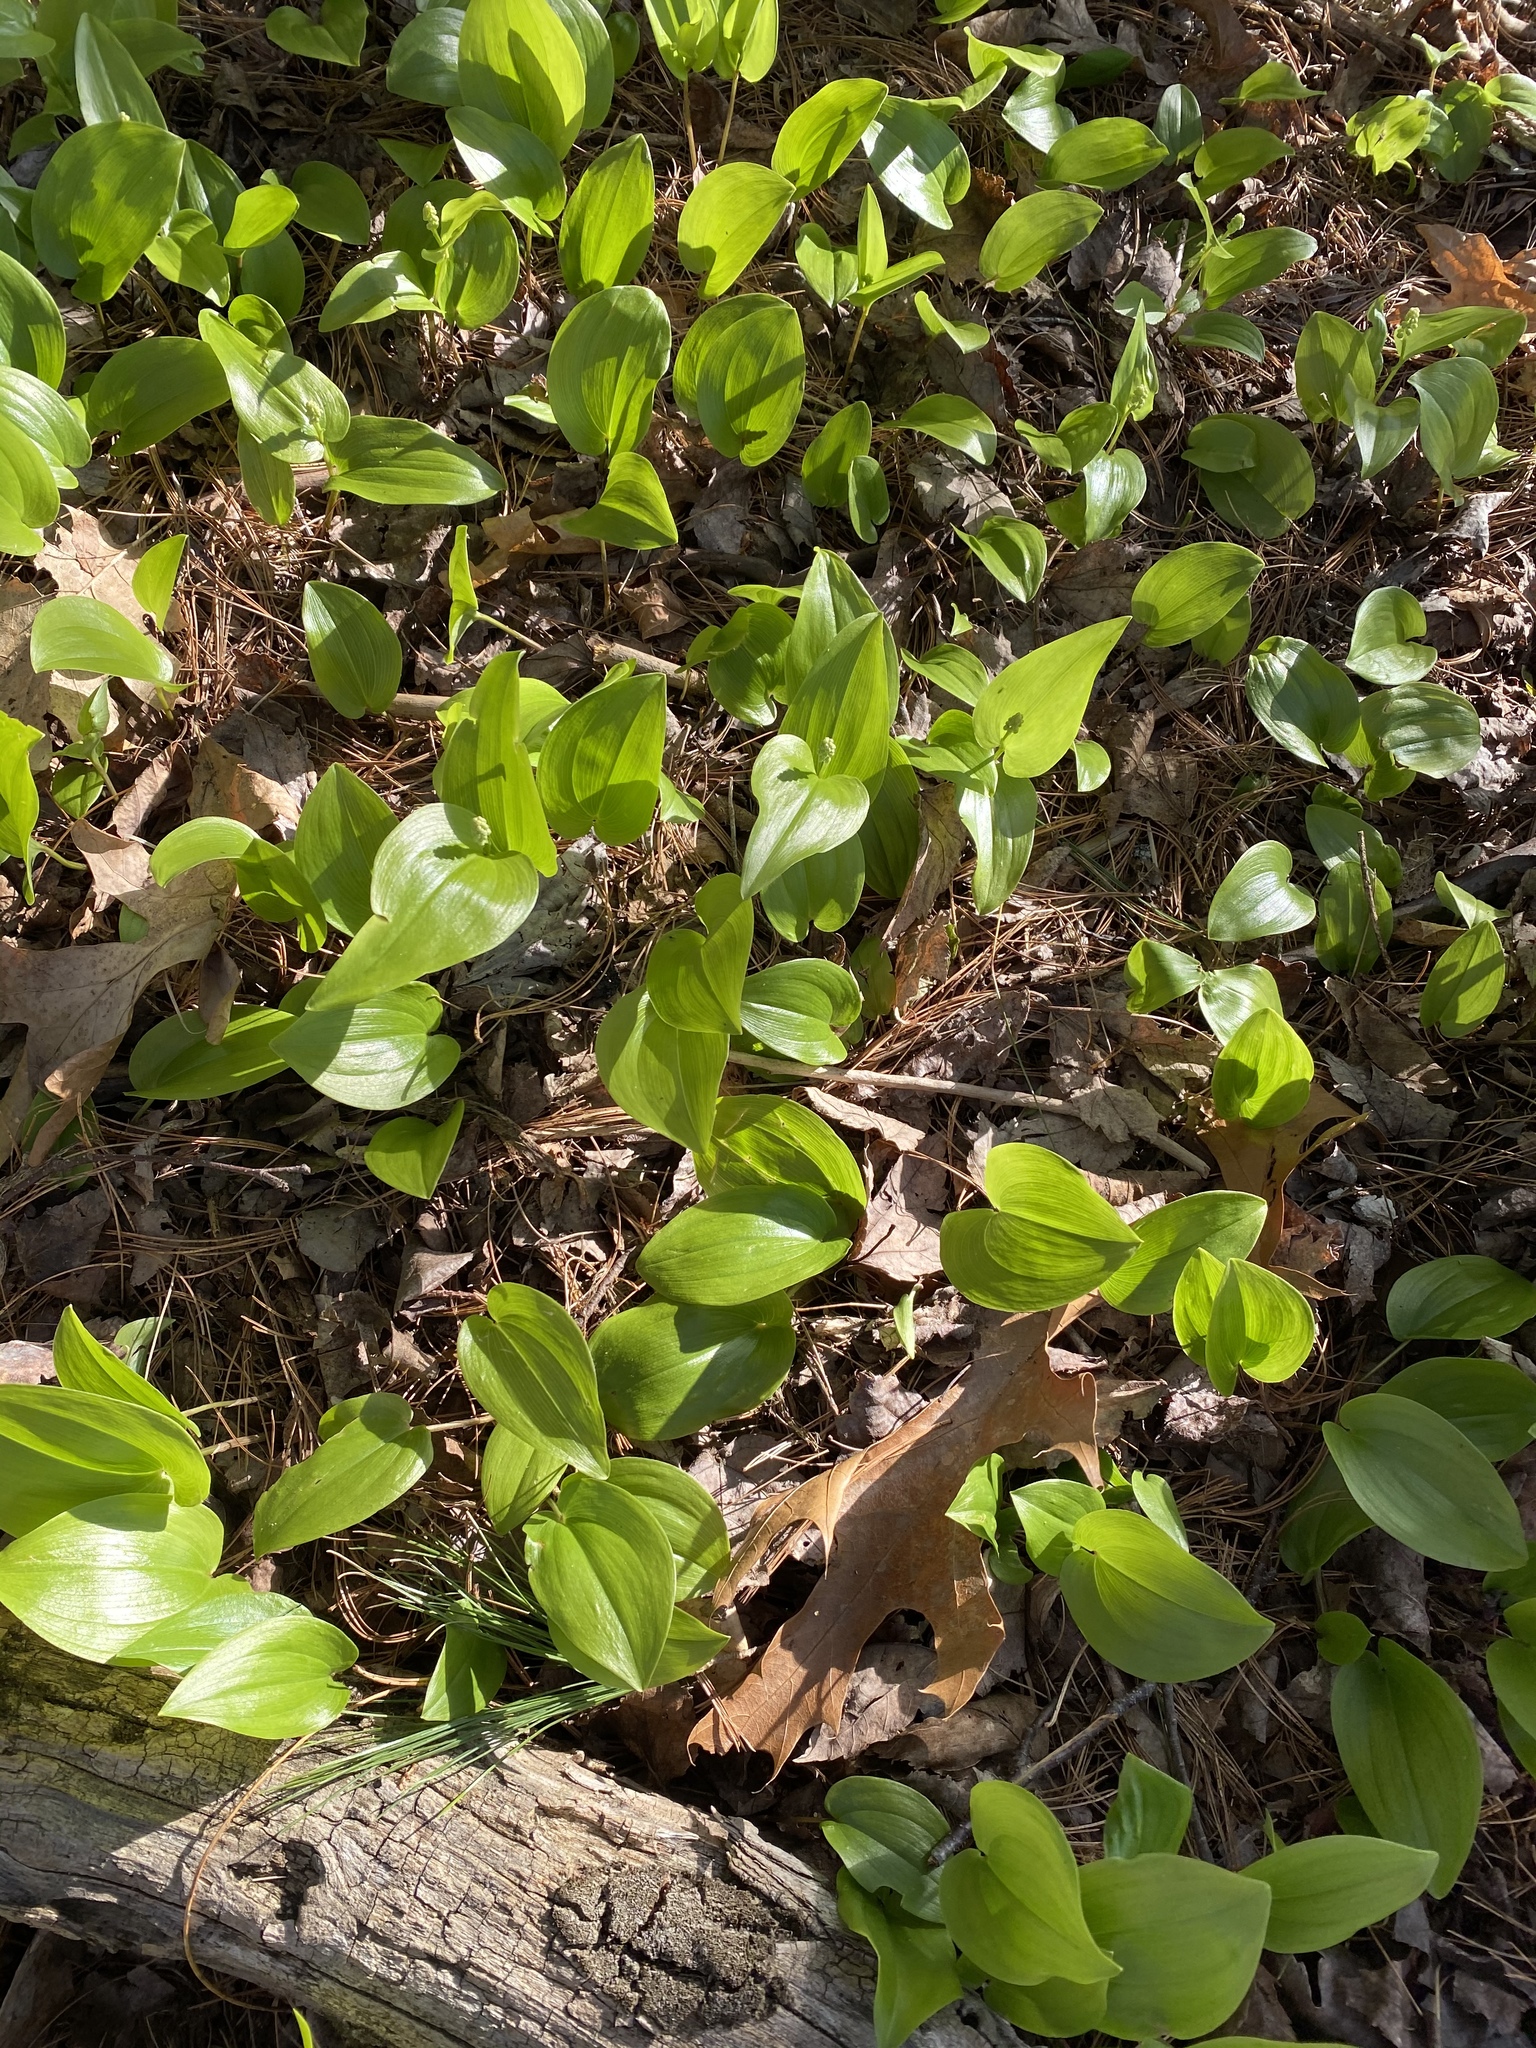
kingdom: Plantae
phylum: Tracheophyta
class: Liliopsida
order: Asparagales
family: Asparagaceae
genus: Maianthemum
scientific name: Maianthemum canadense
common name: False lily-of-the-valley
